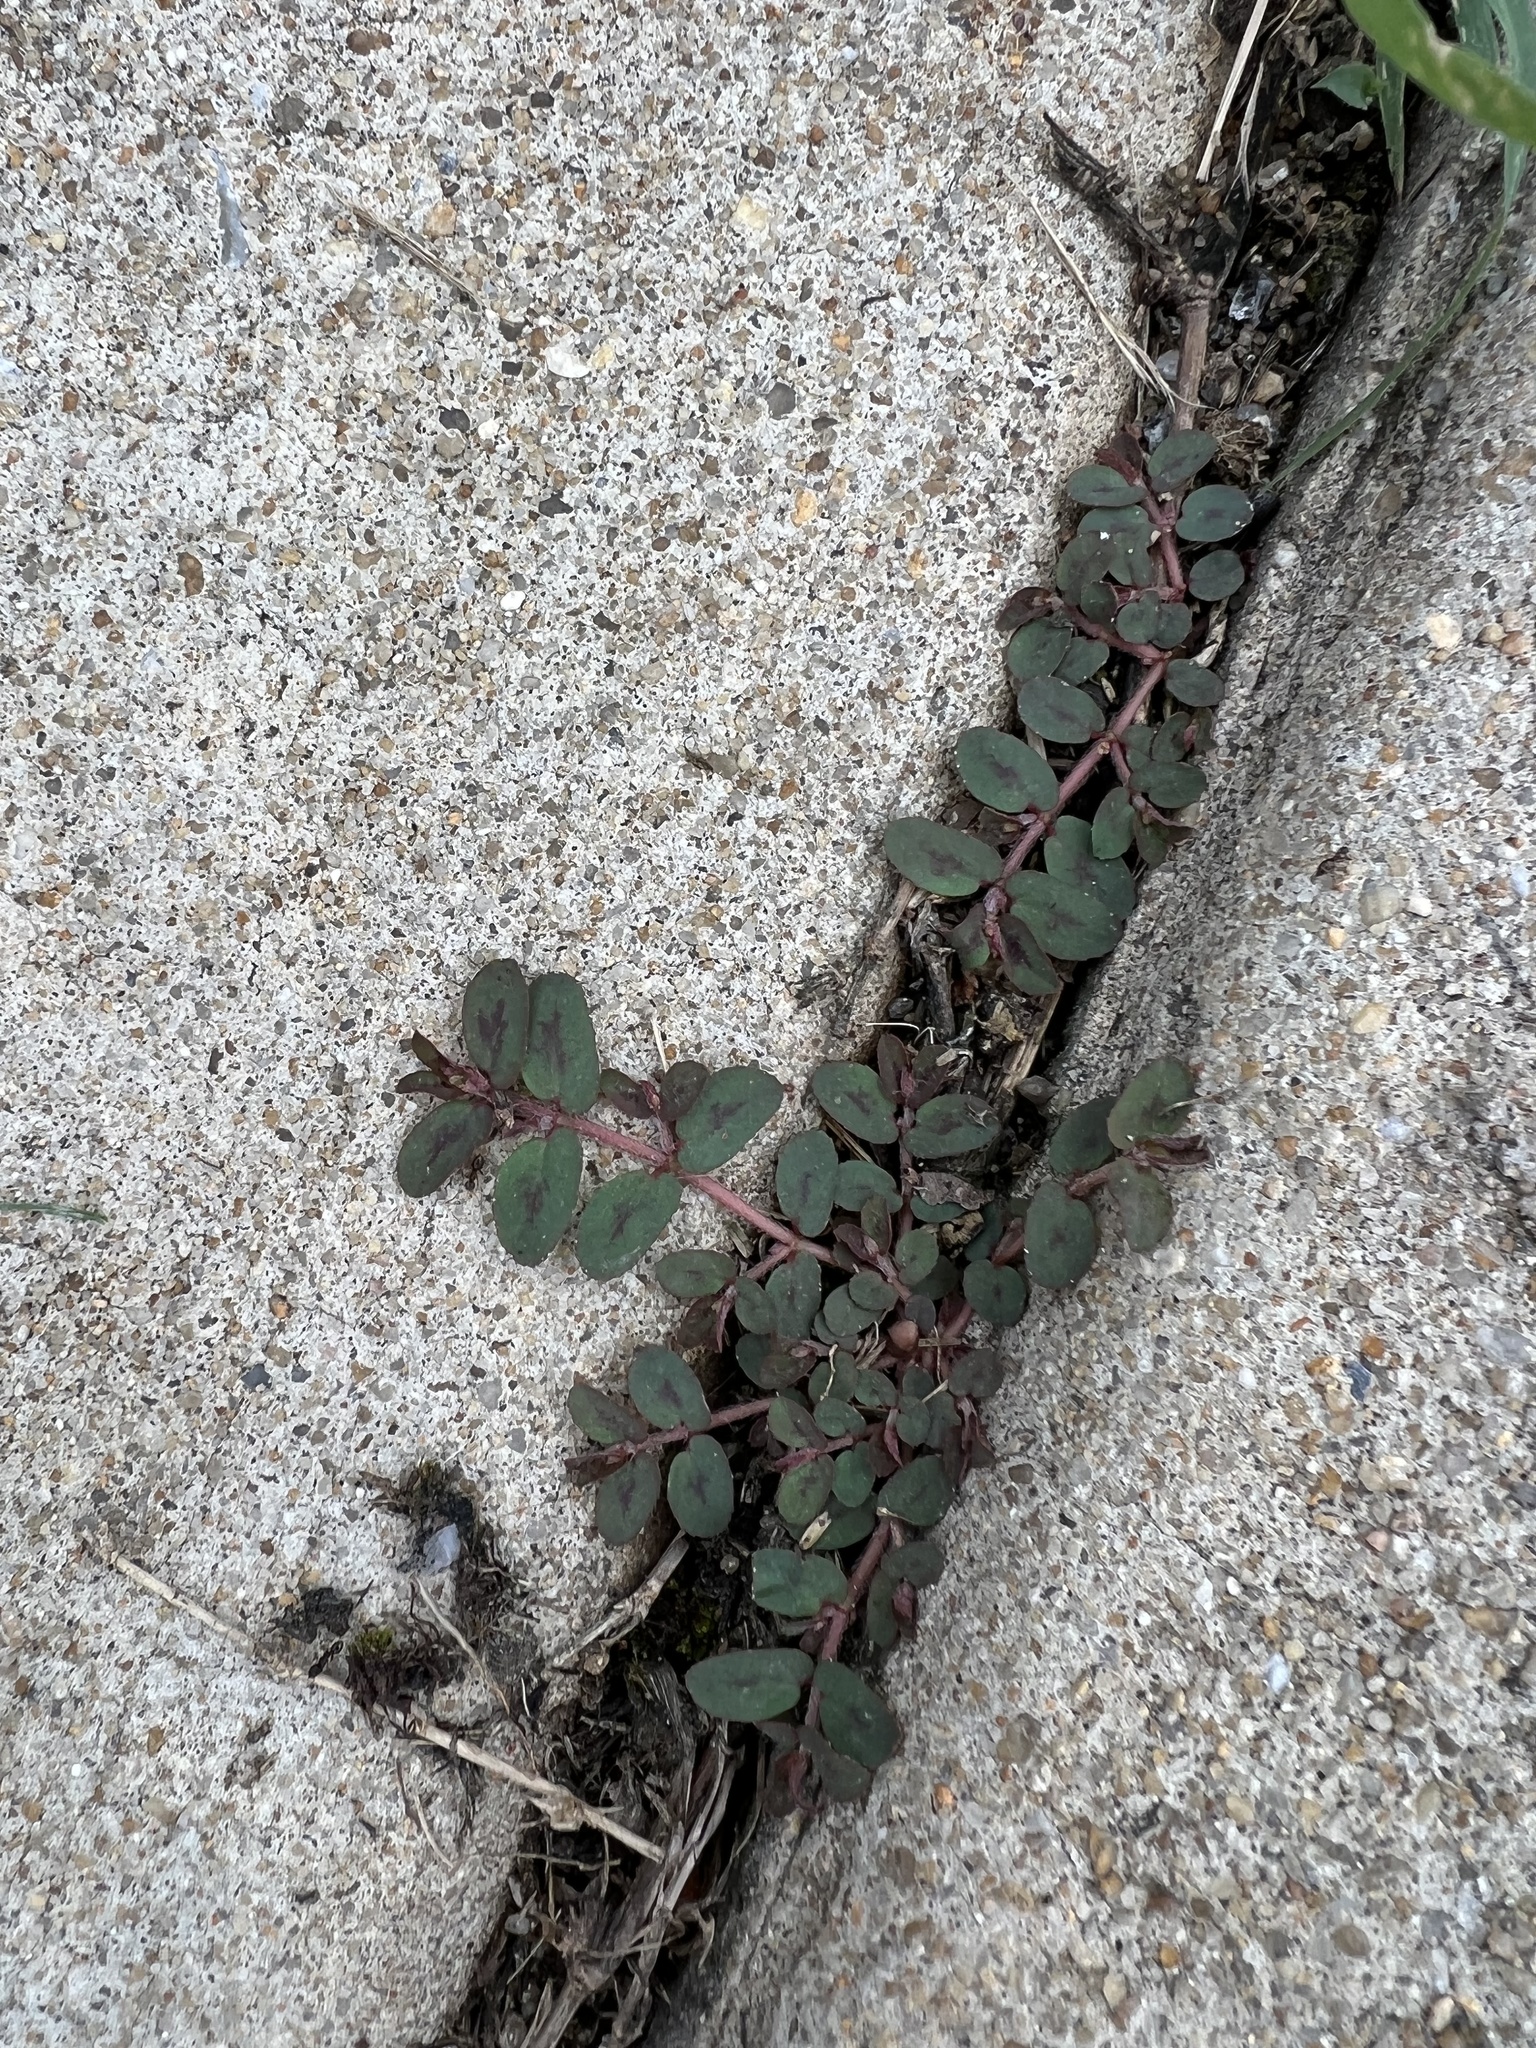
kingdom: Plantae
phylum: Tracheophyta
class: Magnoliopsida
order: Malpighiales
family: Euphorbiaceae
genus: Euphorbia
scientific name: Euphorbia maculata
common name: Spotted spurge
